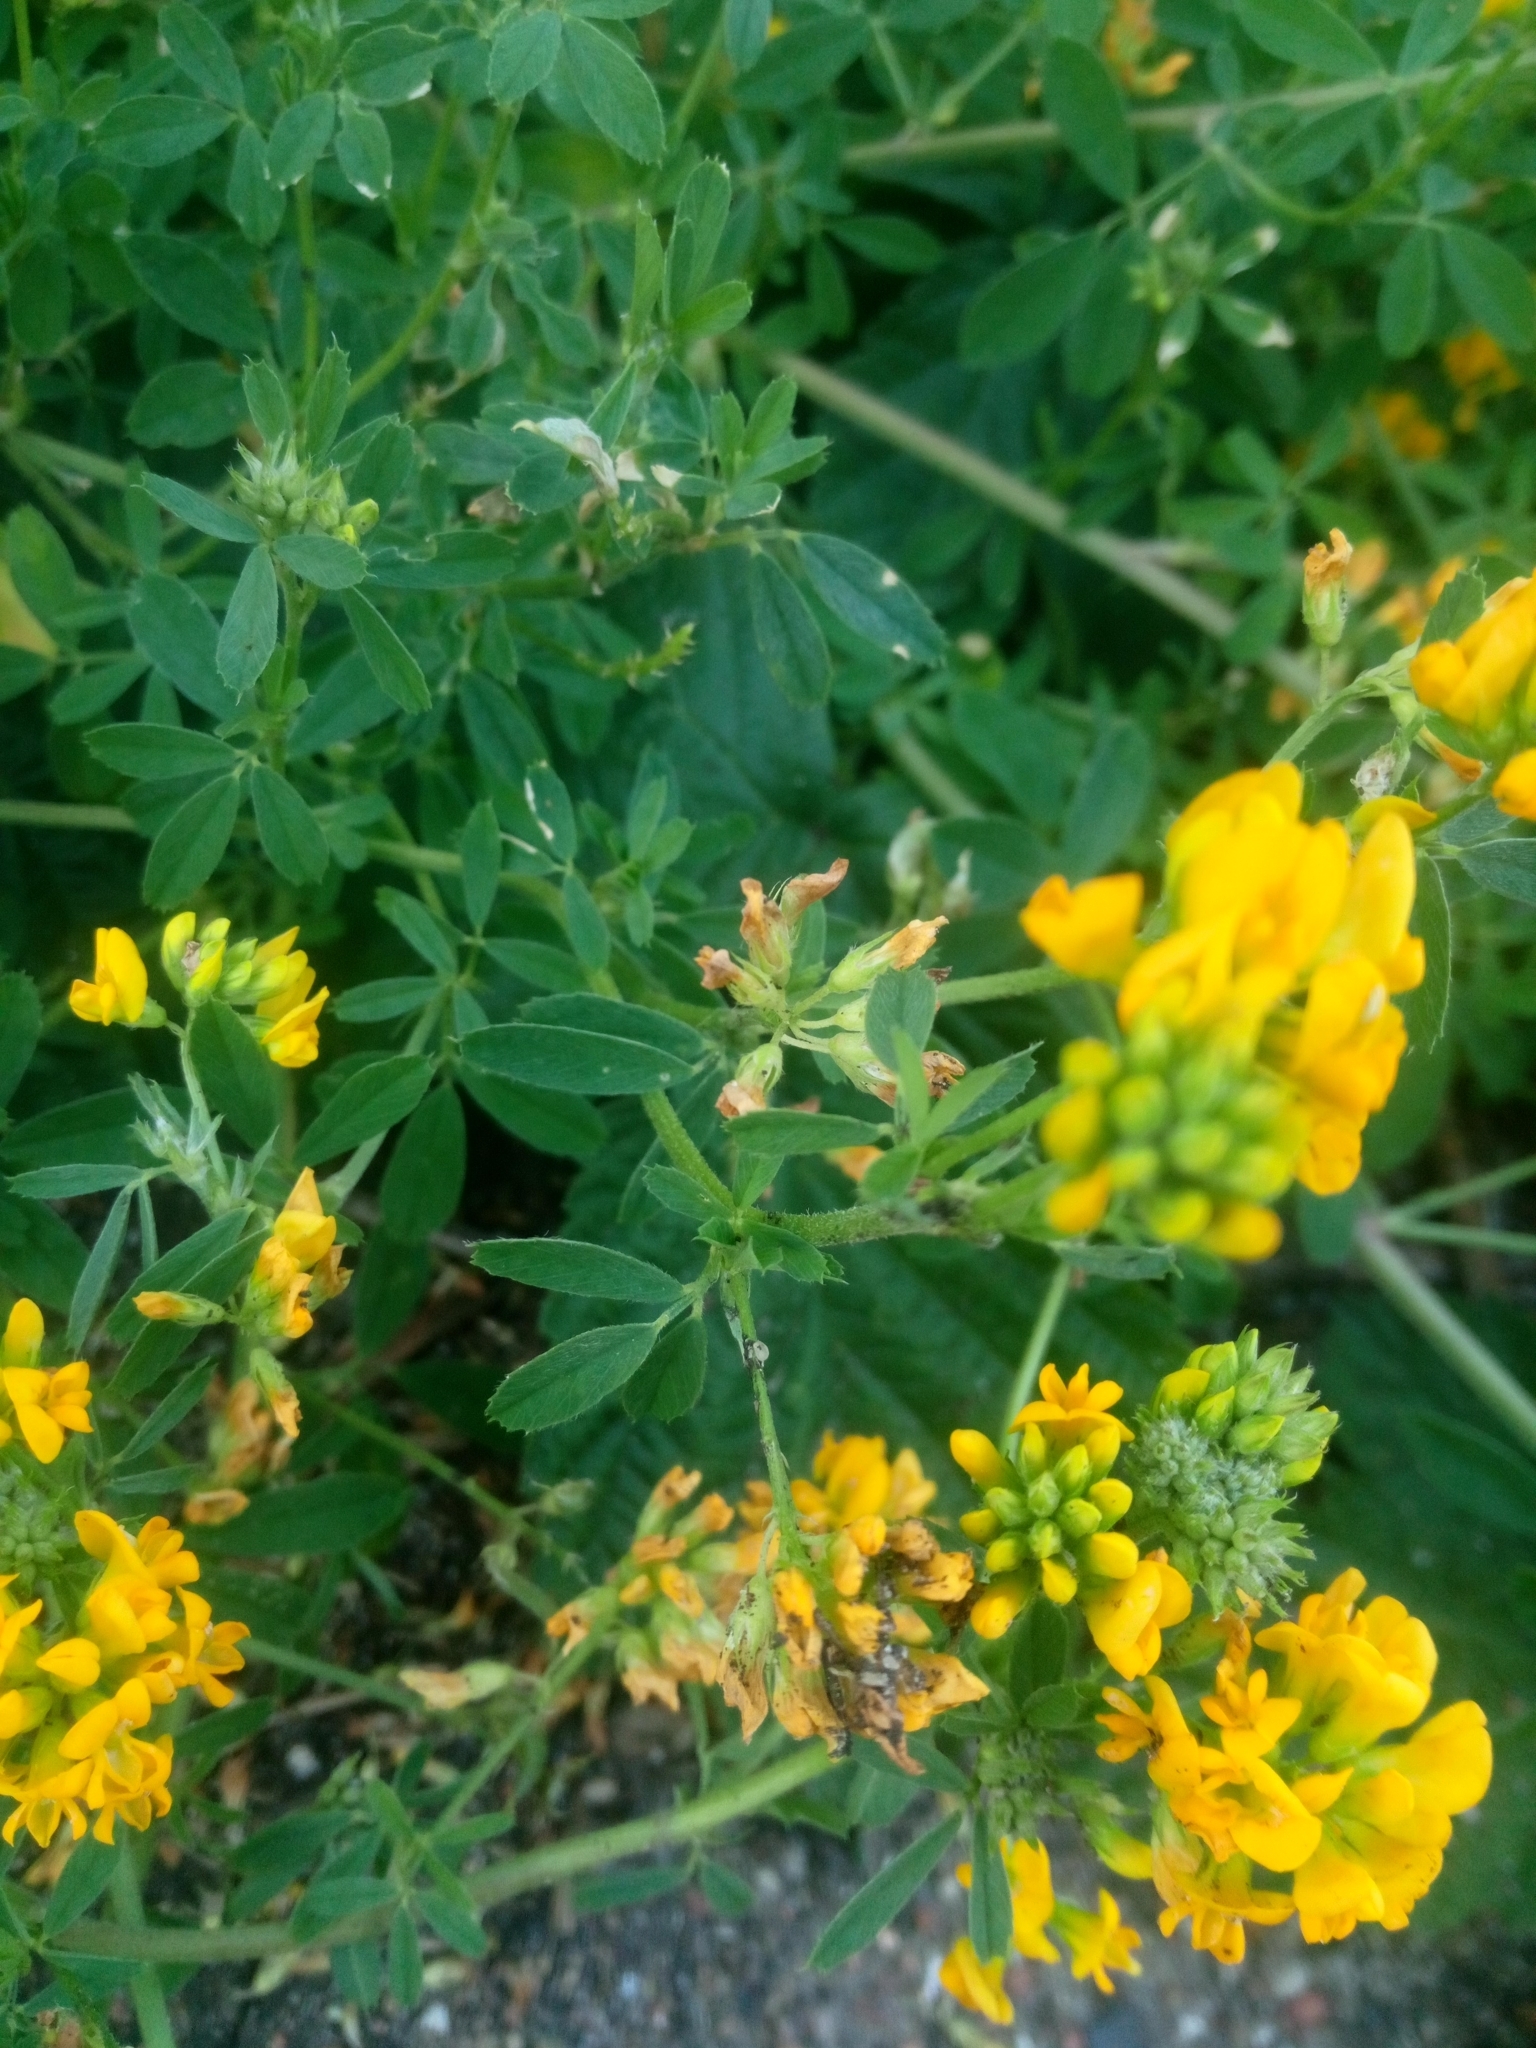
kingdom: Plantae
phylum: Tracheophyta
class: Magnoliopsida
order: Fabales
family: Fabaceae
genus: Medicago
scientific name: Medicago falcata
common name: Sickle medick
